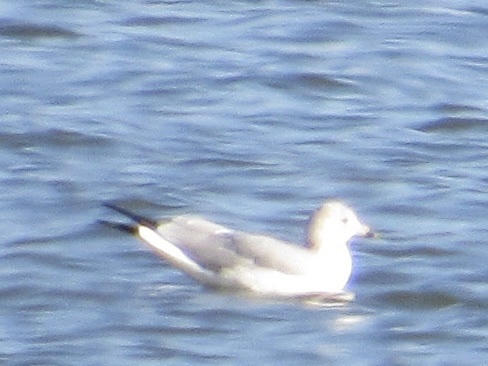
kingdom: Animalia
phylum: Chordata
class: Aves
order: Charadriiformes
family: Laridae
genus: Larus
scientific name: Larus delawarensis
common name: Ring-billed gull
